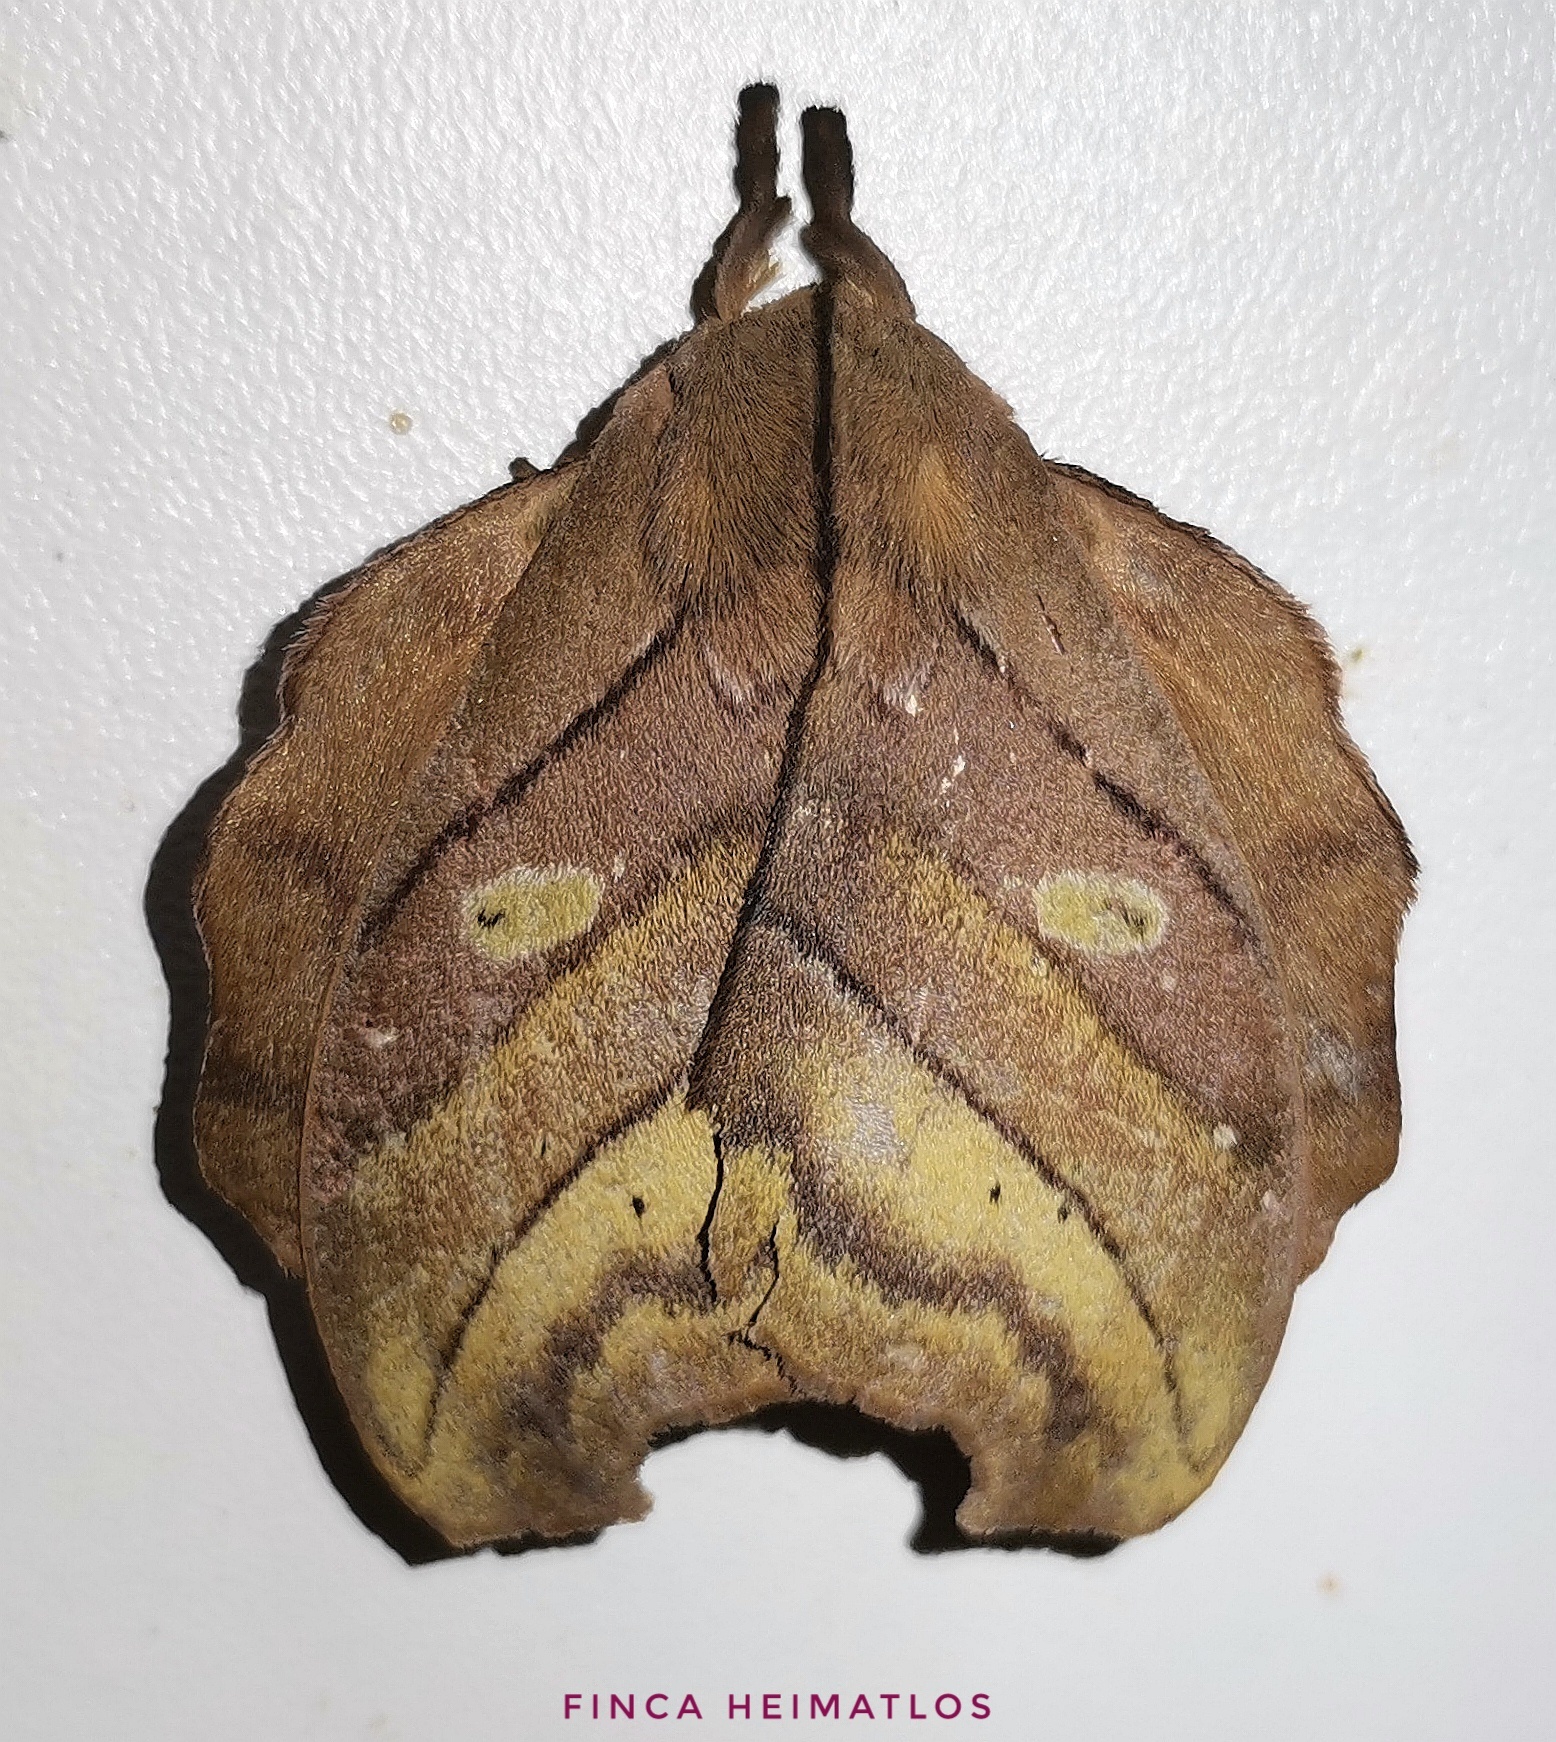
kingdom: Animalia
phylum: Arthropoda
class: Insecta
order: Lepidoptera
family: Saturniidae
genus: Hyperchiria
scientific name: Hyperchiria nausica
